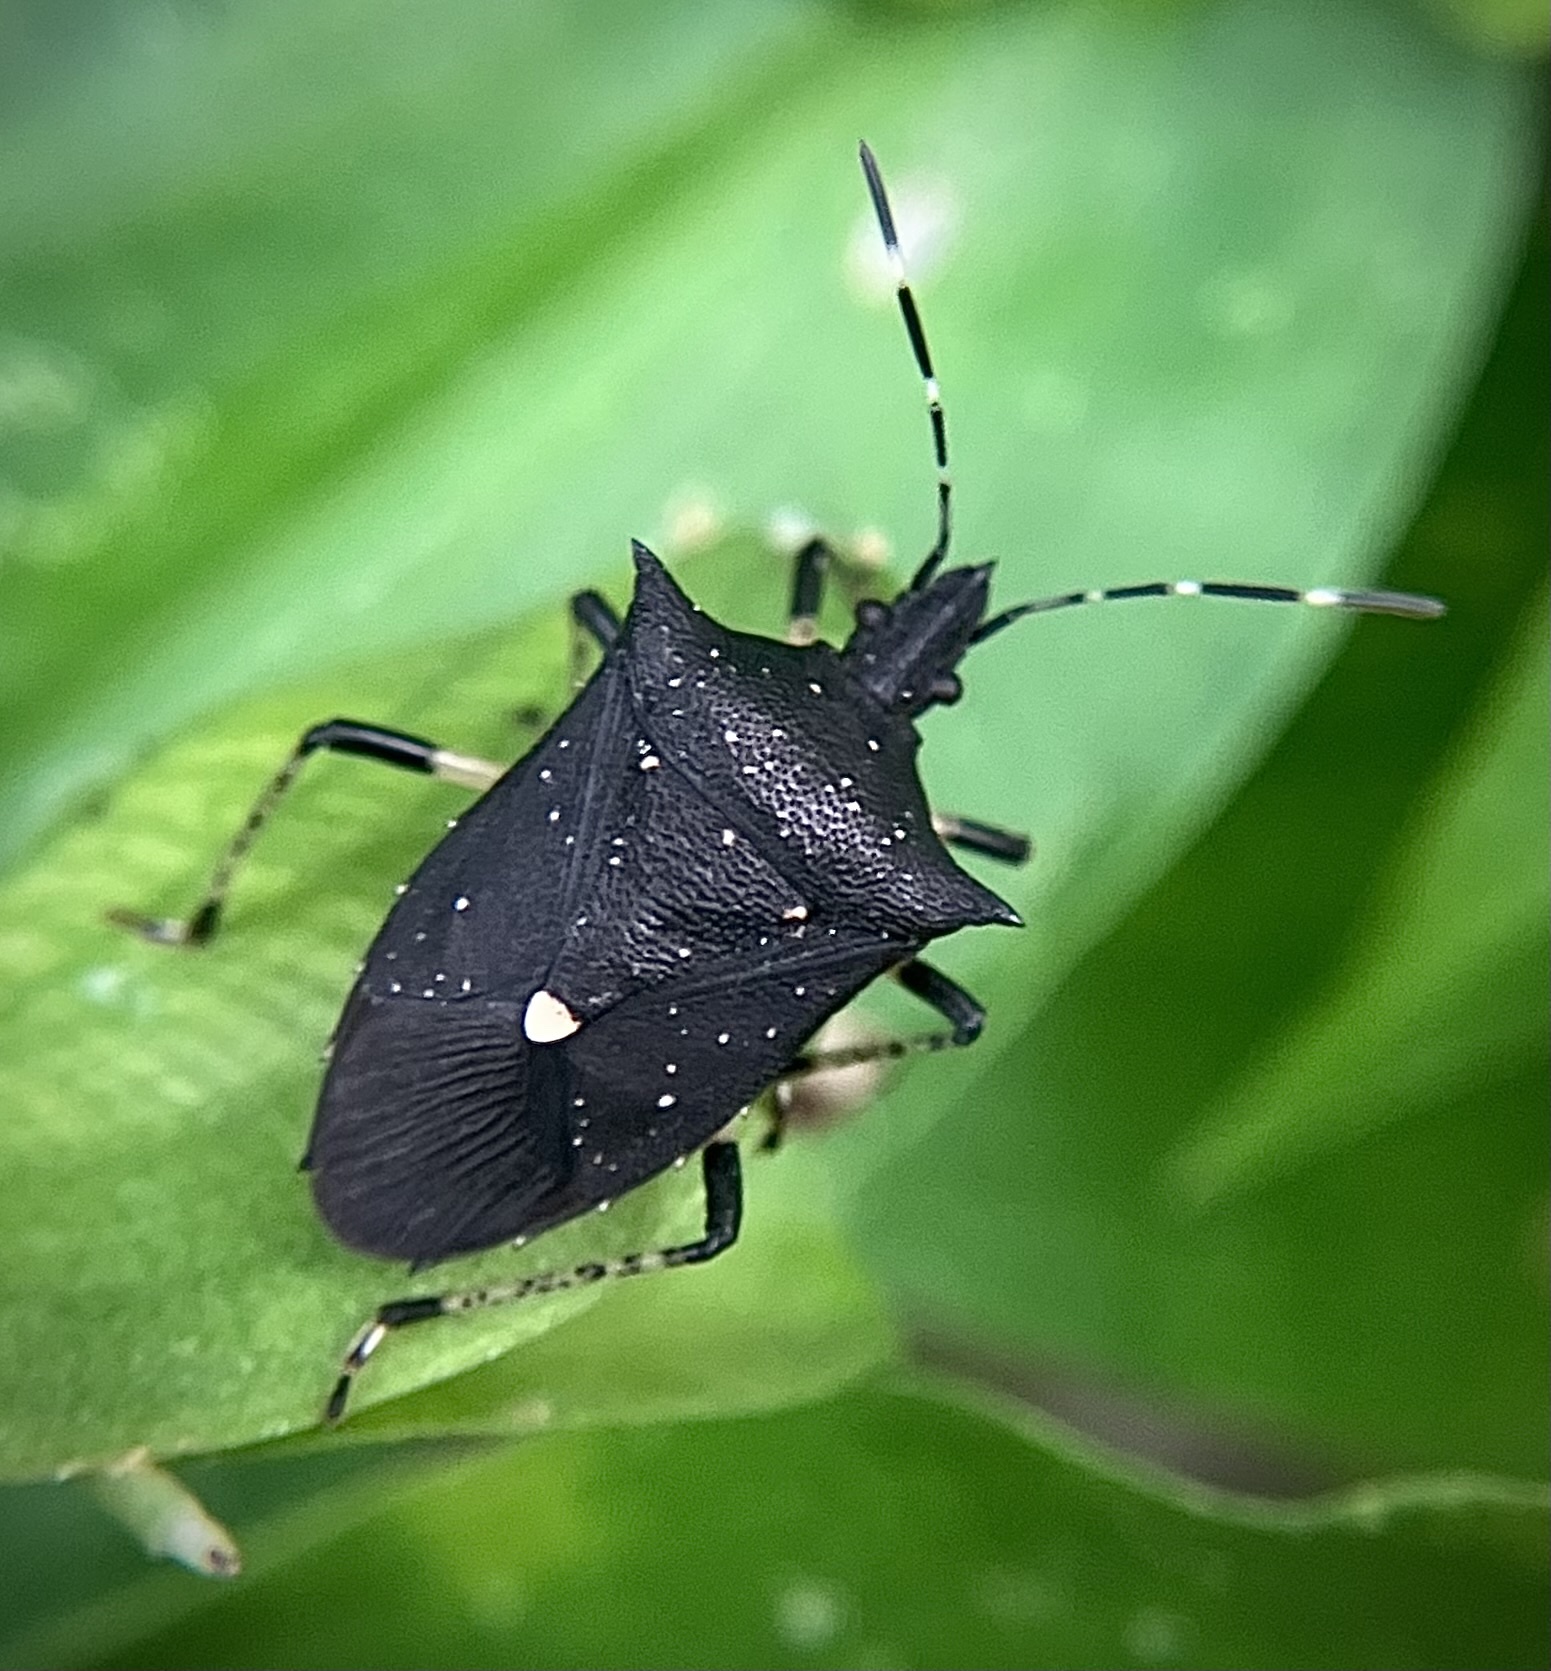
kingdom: Animalia
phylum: Arthropoda
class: Insecta
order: Hemiptera
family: Pentatomidae
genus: Proxys
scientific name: Proxys punctulatus
